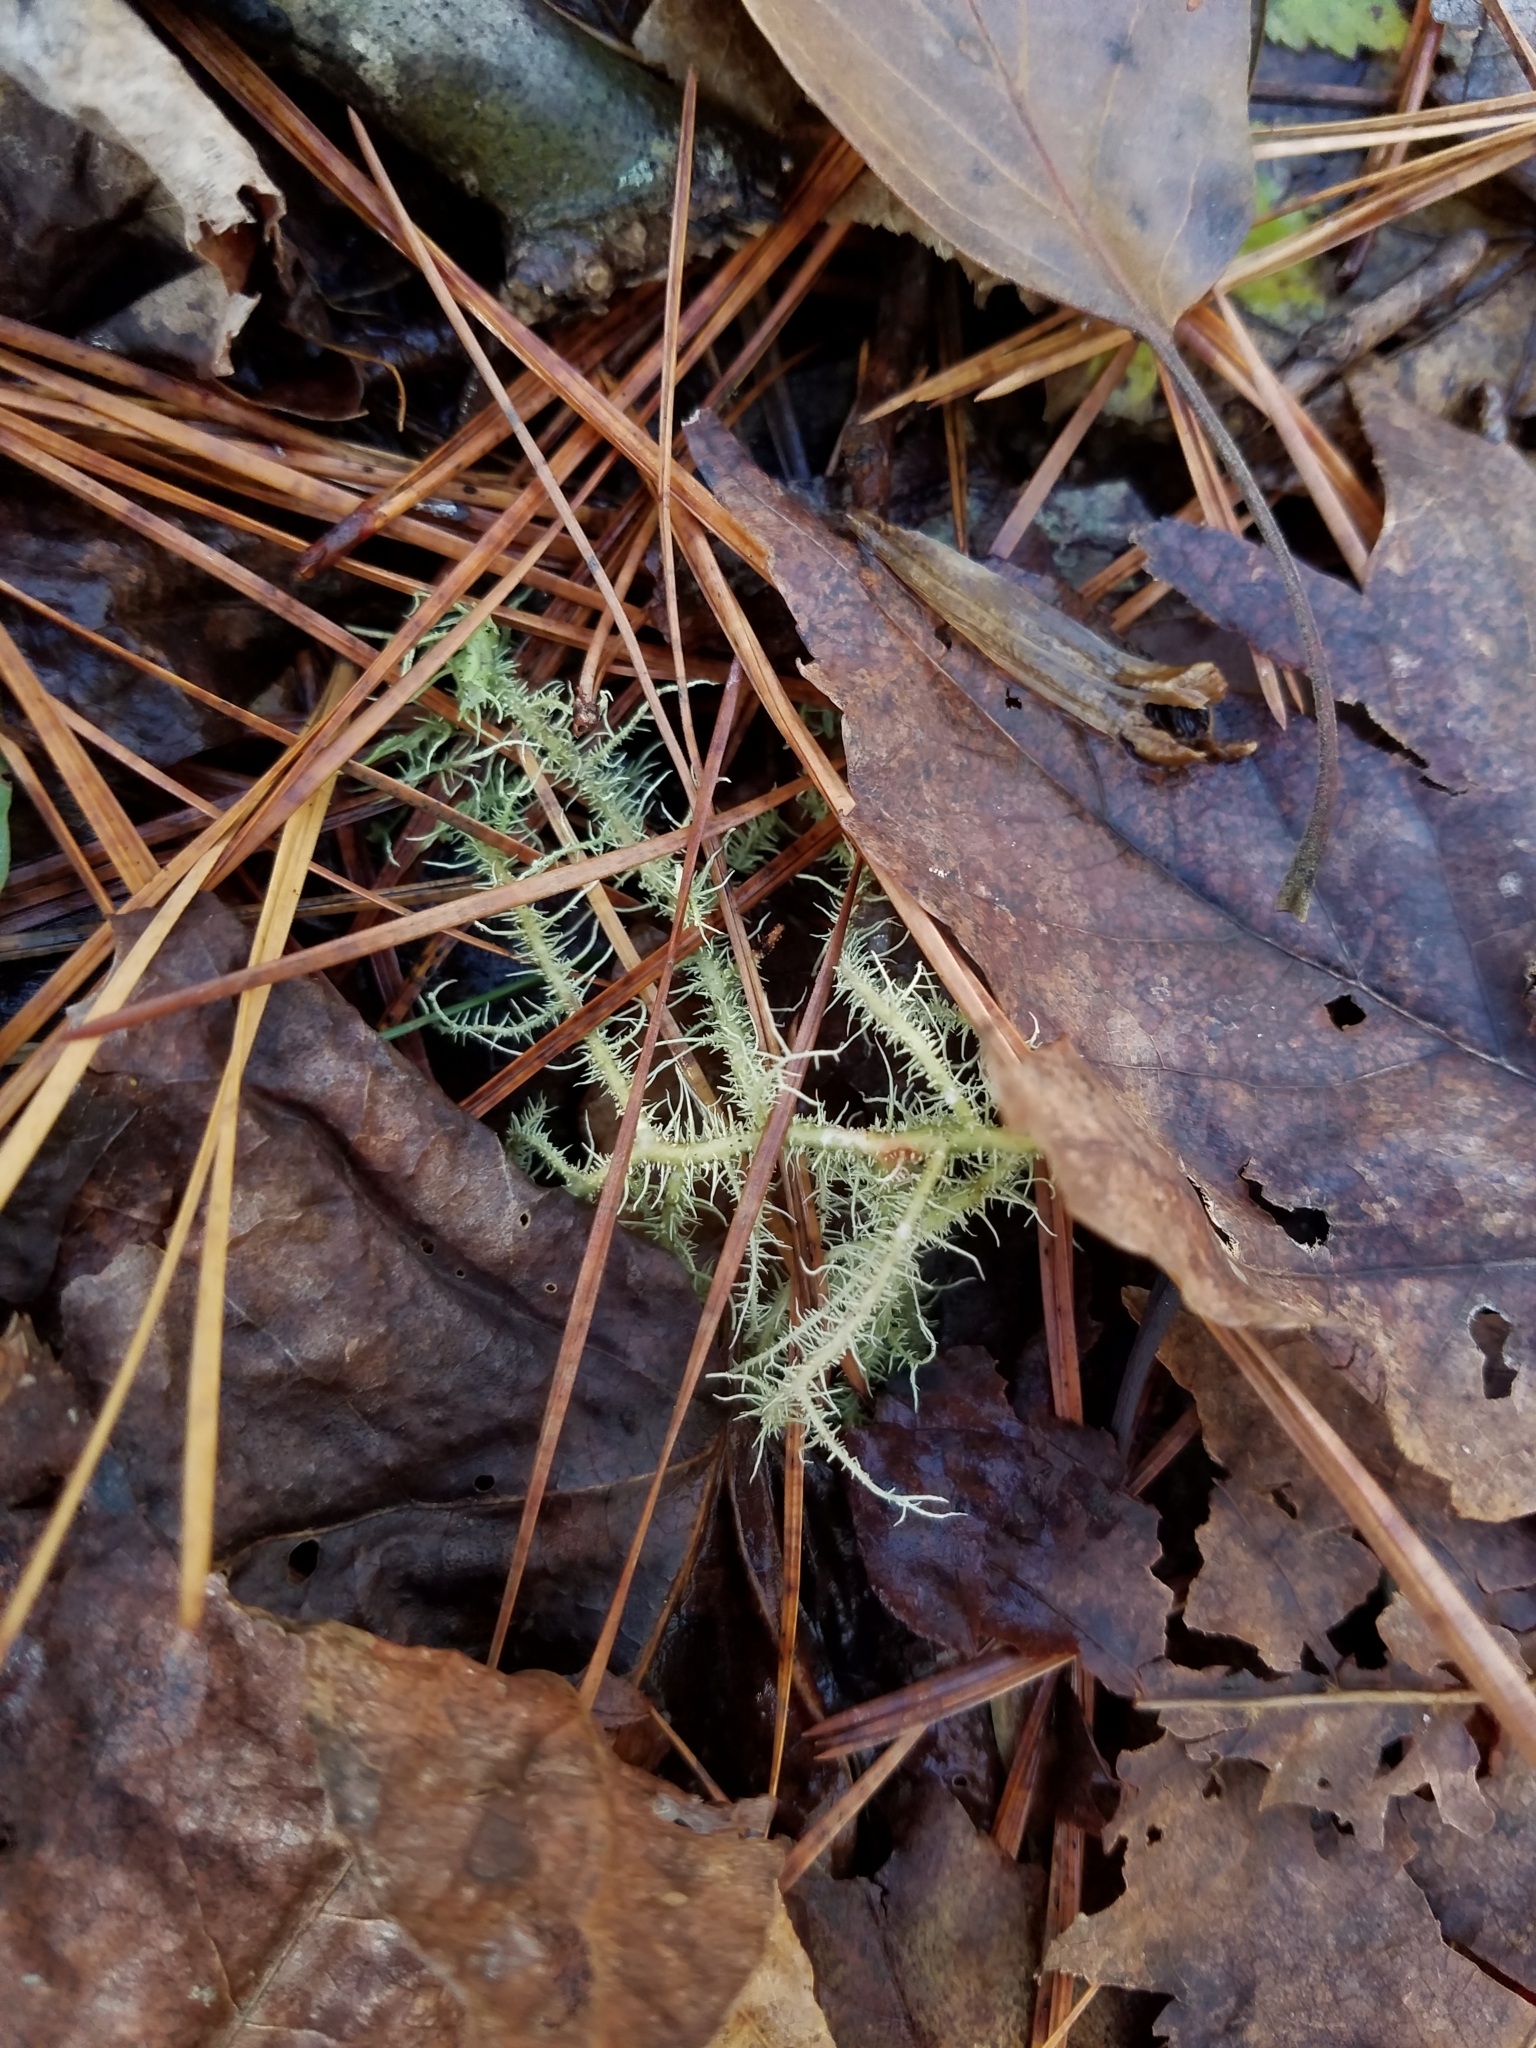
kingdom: Fungi
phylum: Ascomycota
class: Lecanoromycetes
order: Lecanorales
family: Parmeliaceae
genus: Usnea
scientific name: Usnea hirta
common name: Bristly beard lichen
